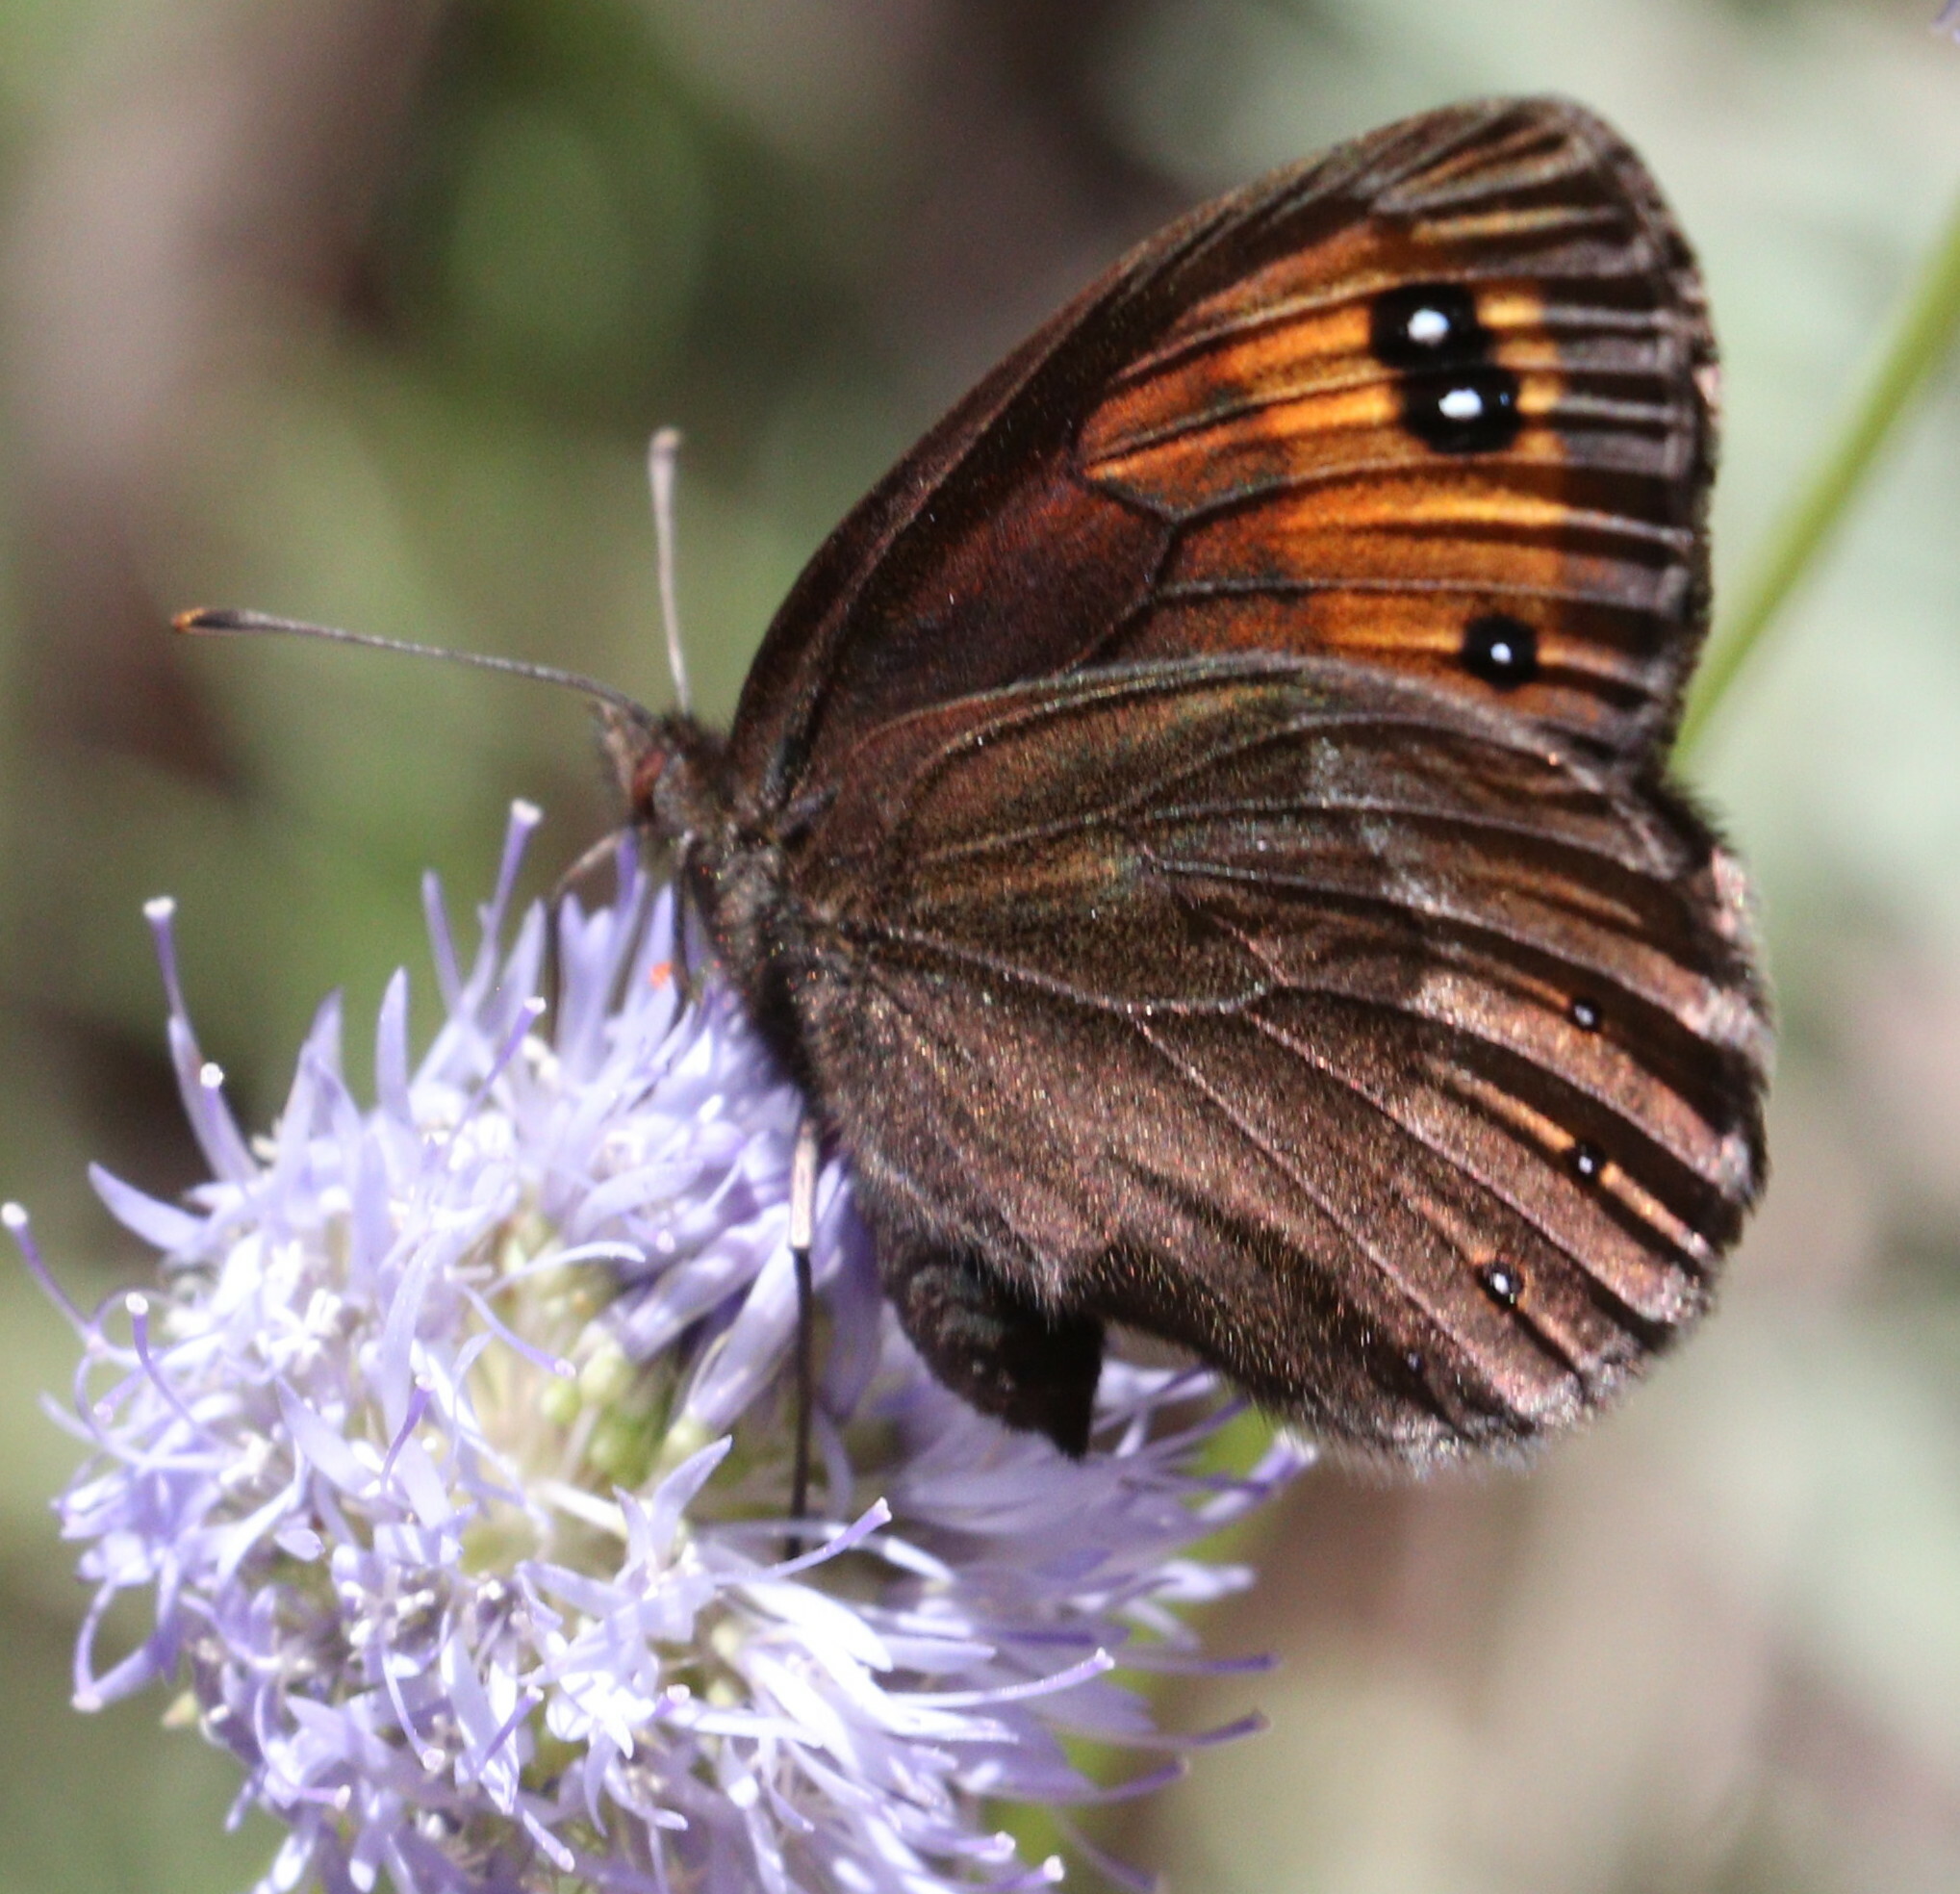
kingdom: Animalia
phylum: Arthropoda
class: Insecta
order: Lepidoptera
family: Nymphalidae
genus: Erebia
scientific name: Erebia meolans
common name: Piedmont ringlet
